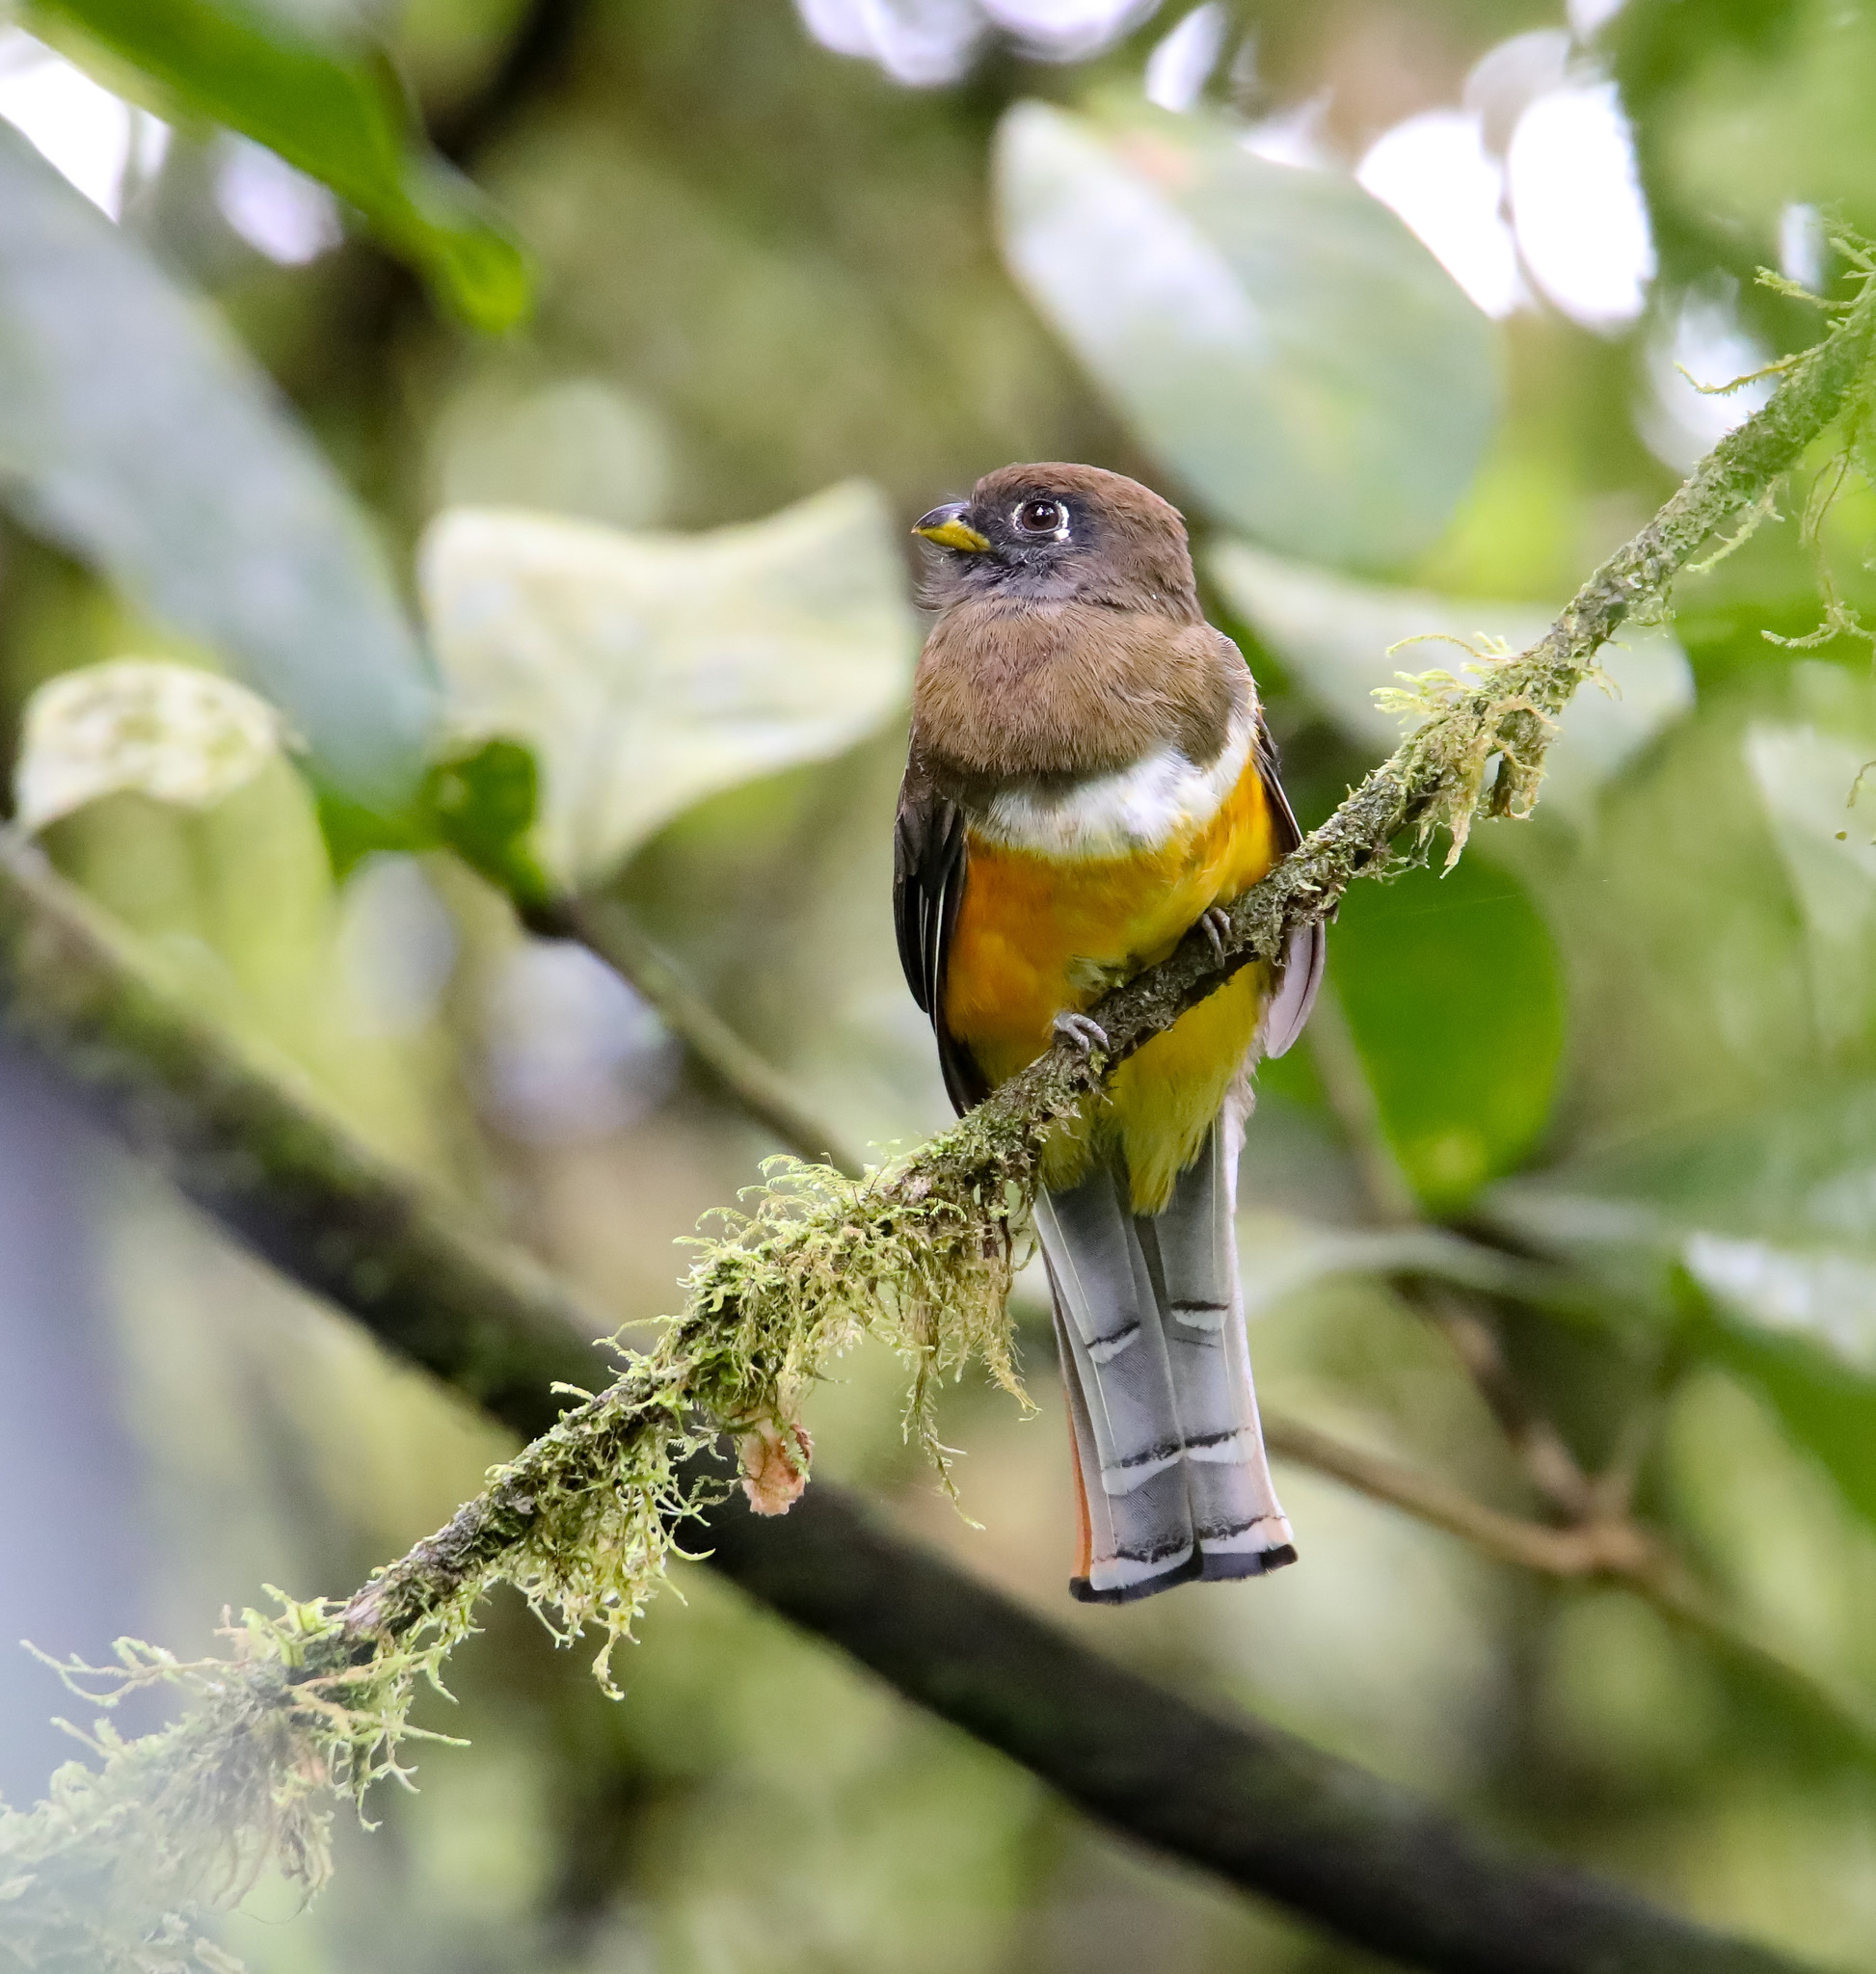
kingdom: Animalia
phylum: Chordata
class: Aves
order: Trogoniformes
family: Trogonidae
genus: Trogon
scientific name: Trogon collaris
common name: Collared trogon
